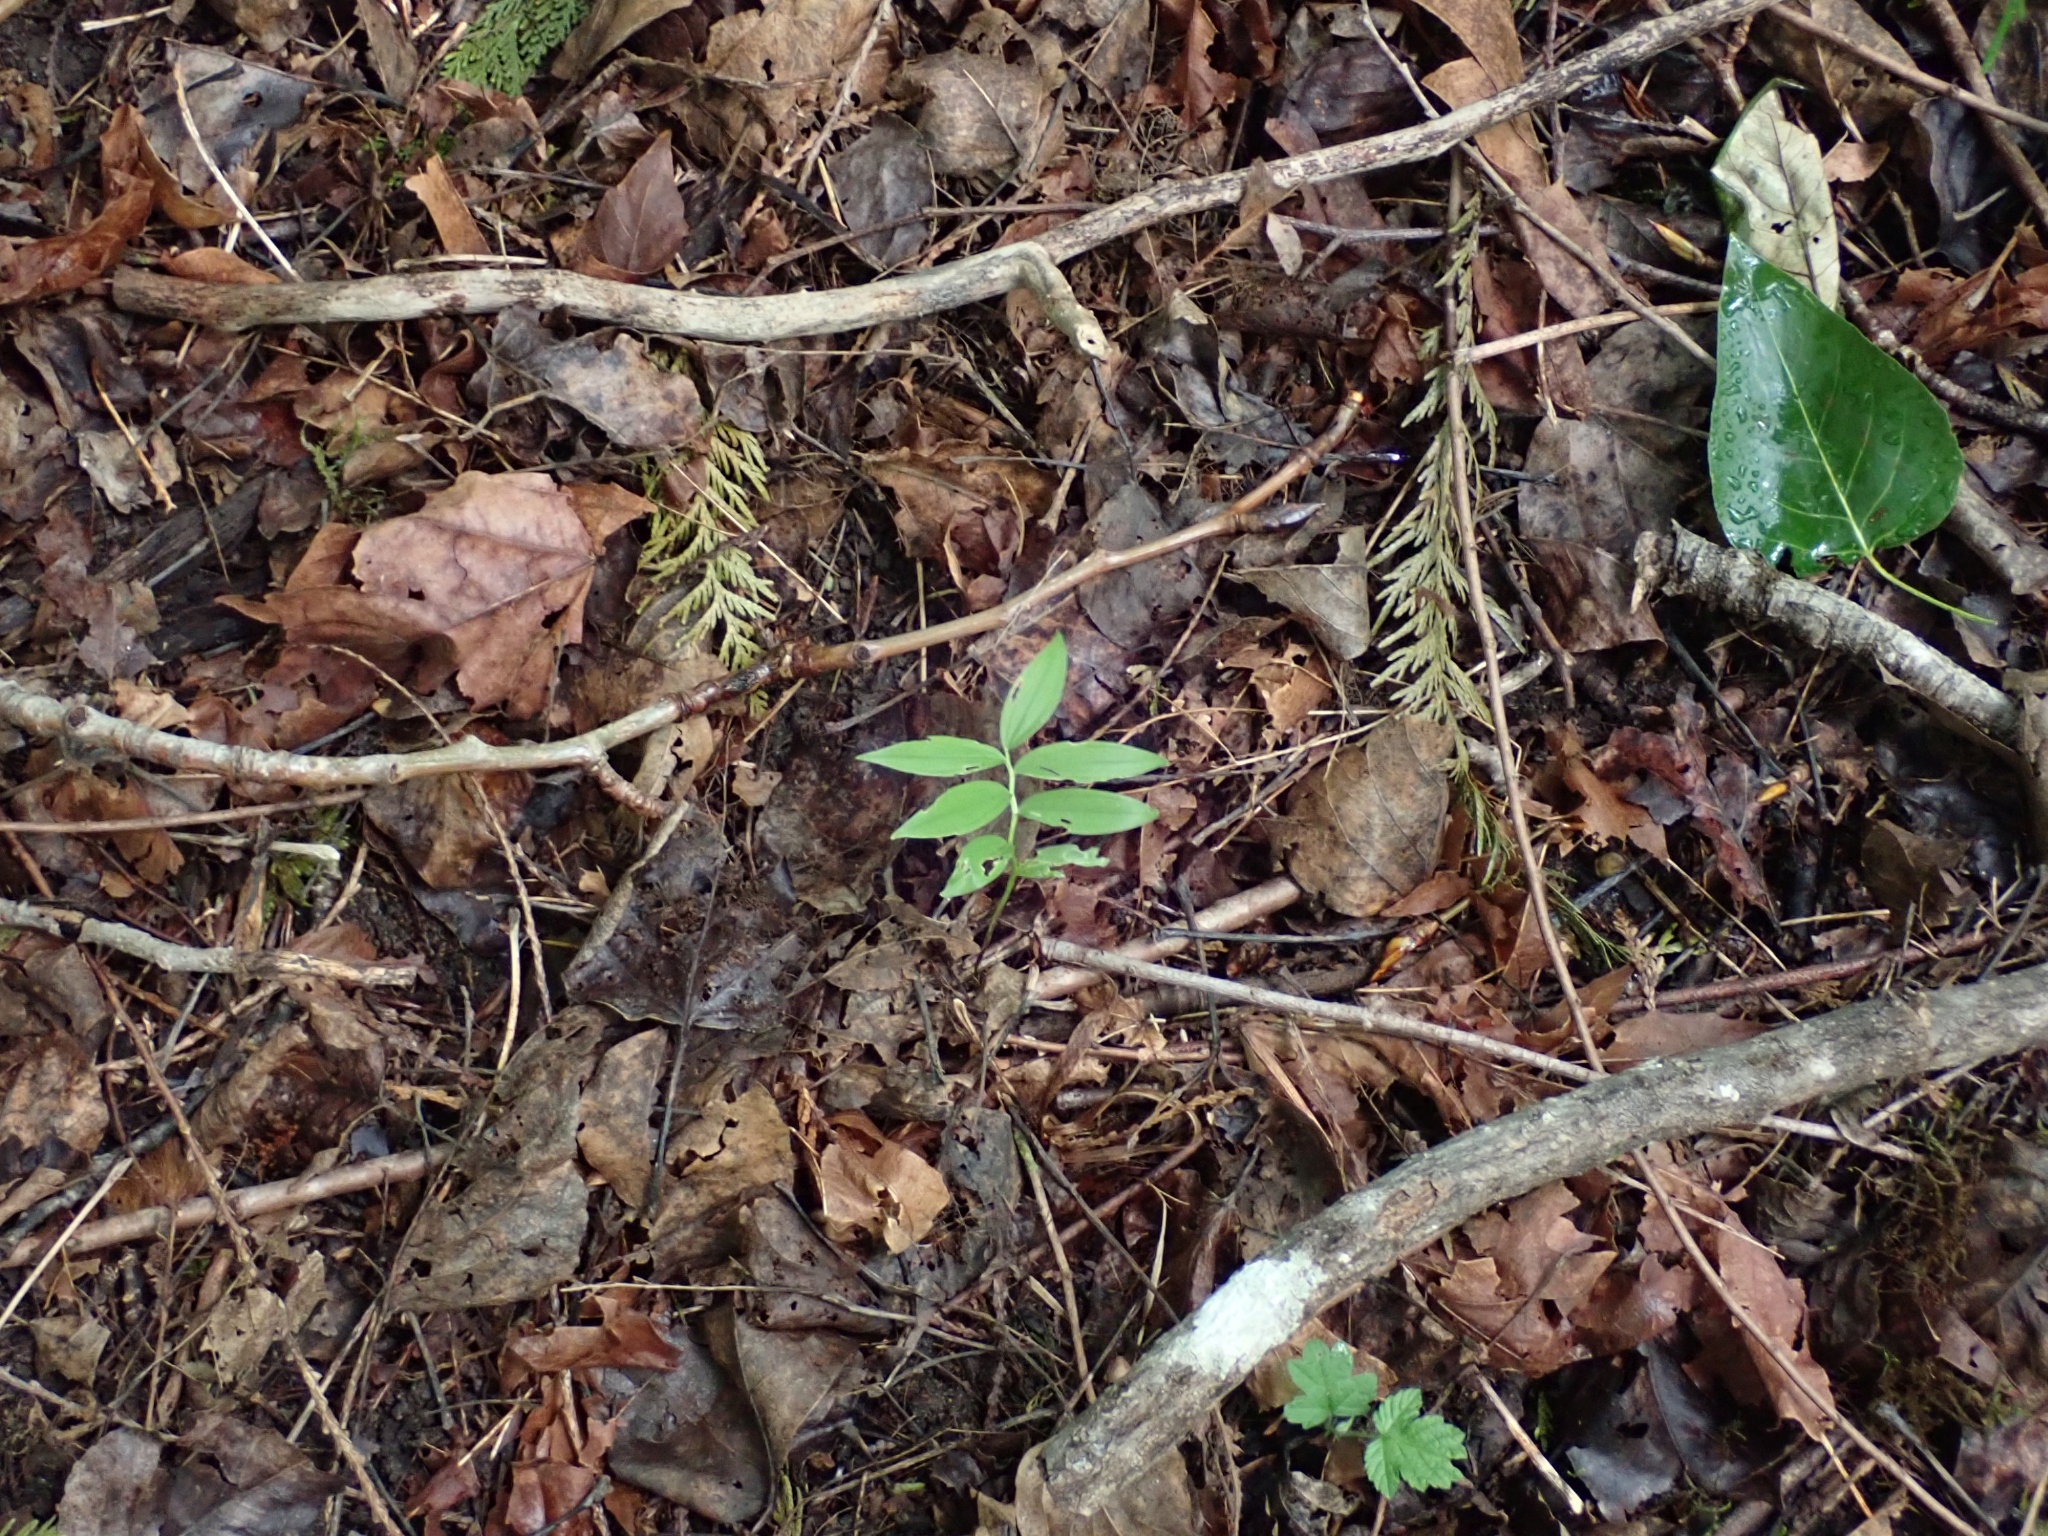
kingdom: Plantae
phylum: Tracheophyta
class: Liliopsida
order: Asparagales
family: Asparagaceae
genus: Maianthemum
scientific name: Maianthemum stellatum
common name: Little false solomon's seal
